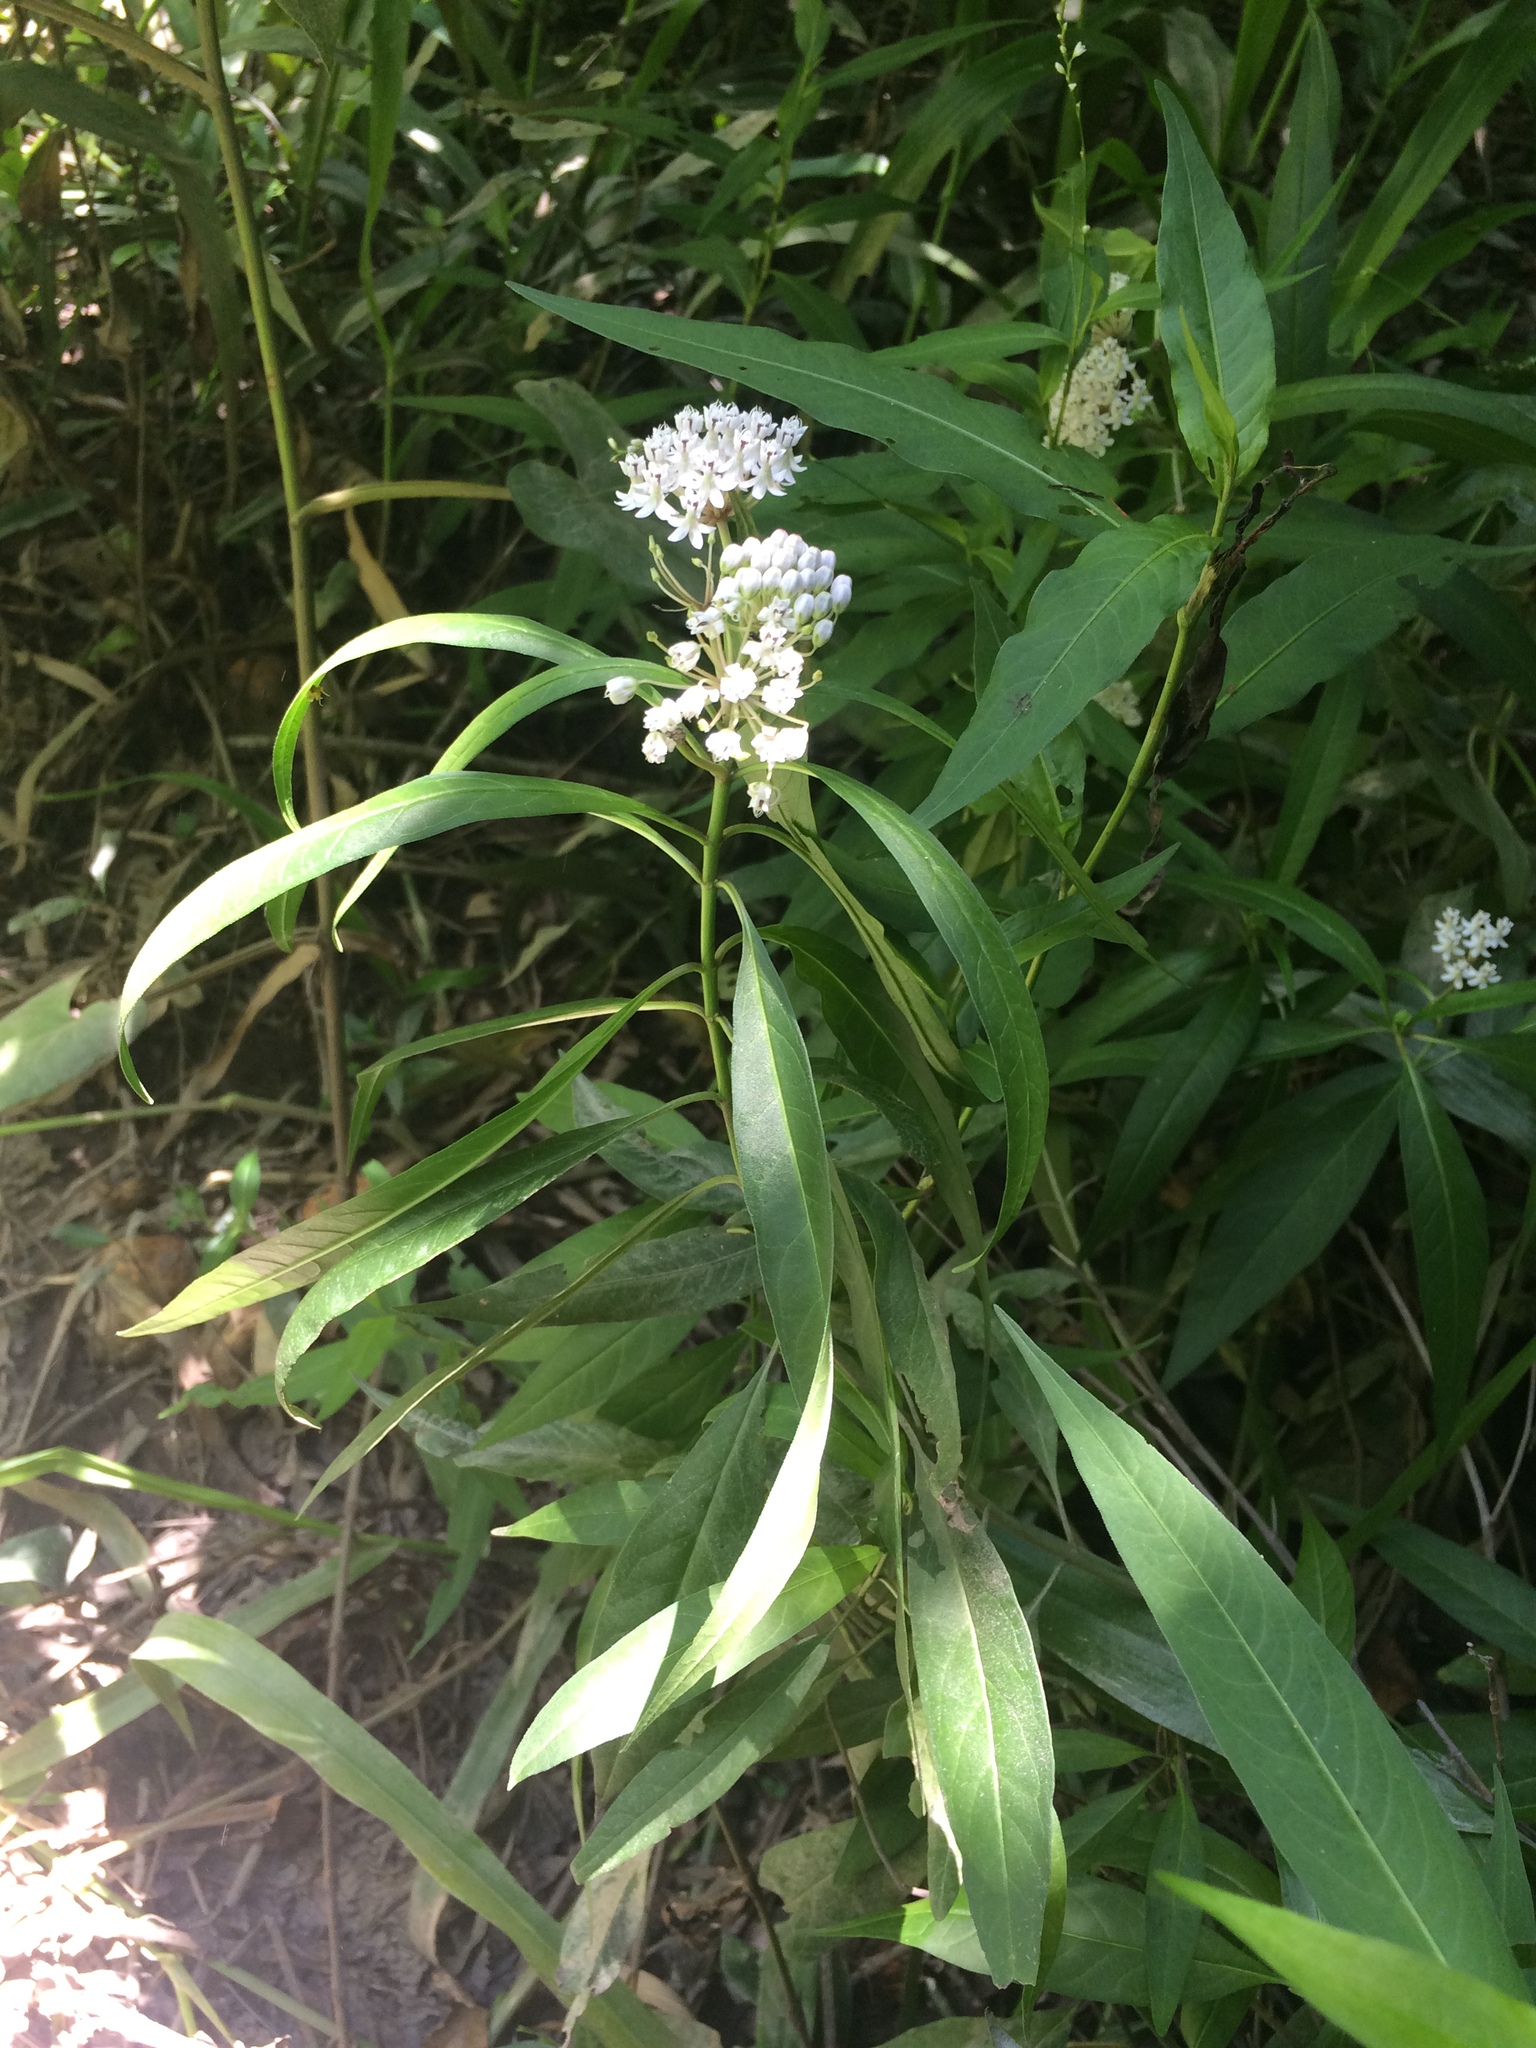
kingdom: Plantae
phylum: Tracheophyta
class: Magnoliopsida
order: Gentianales
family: Apocynaceae
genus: Asclepias
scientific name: Asclepias perennis
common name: Smooth-seed milkweed
